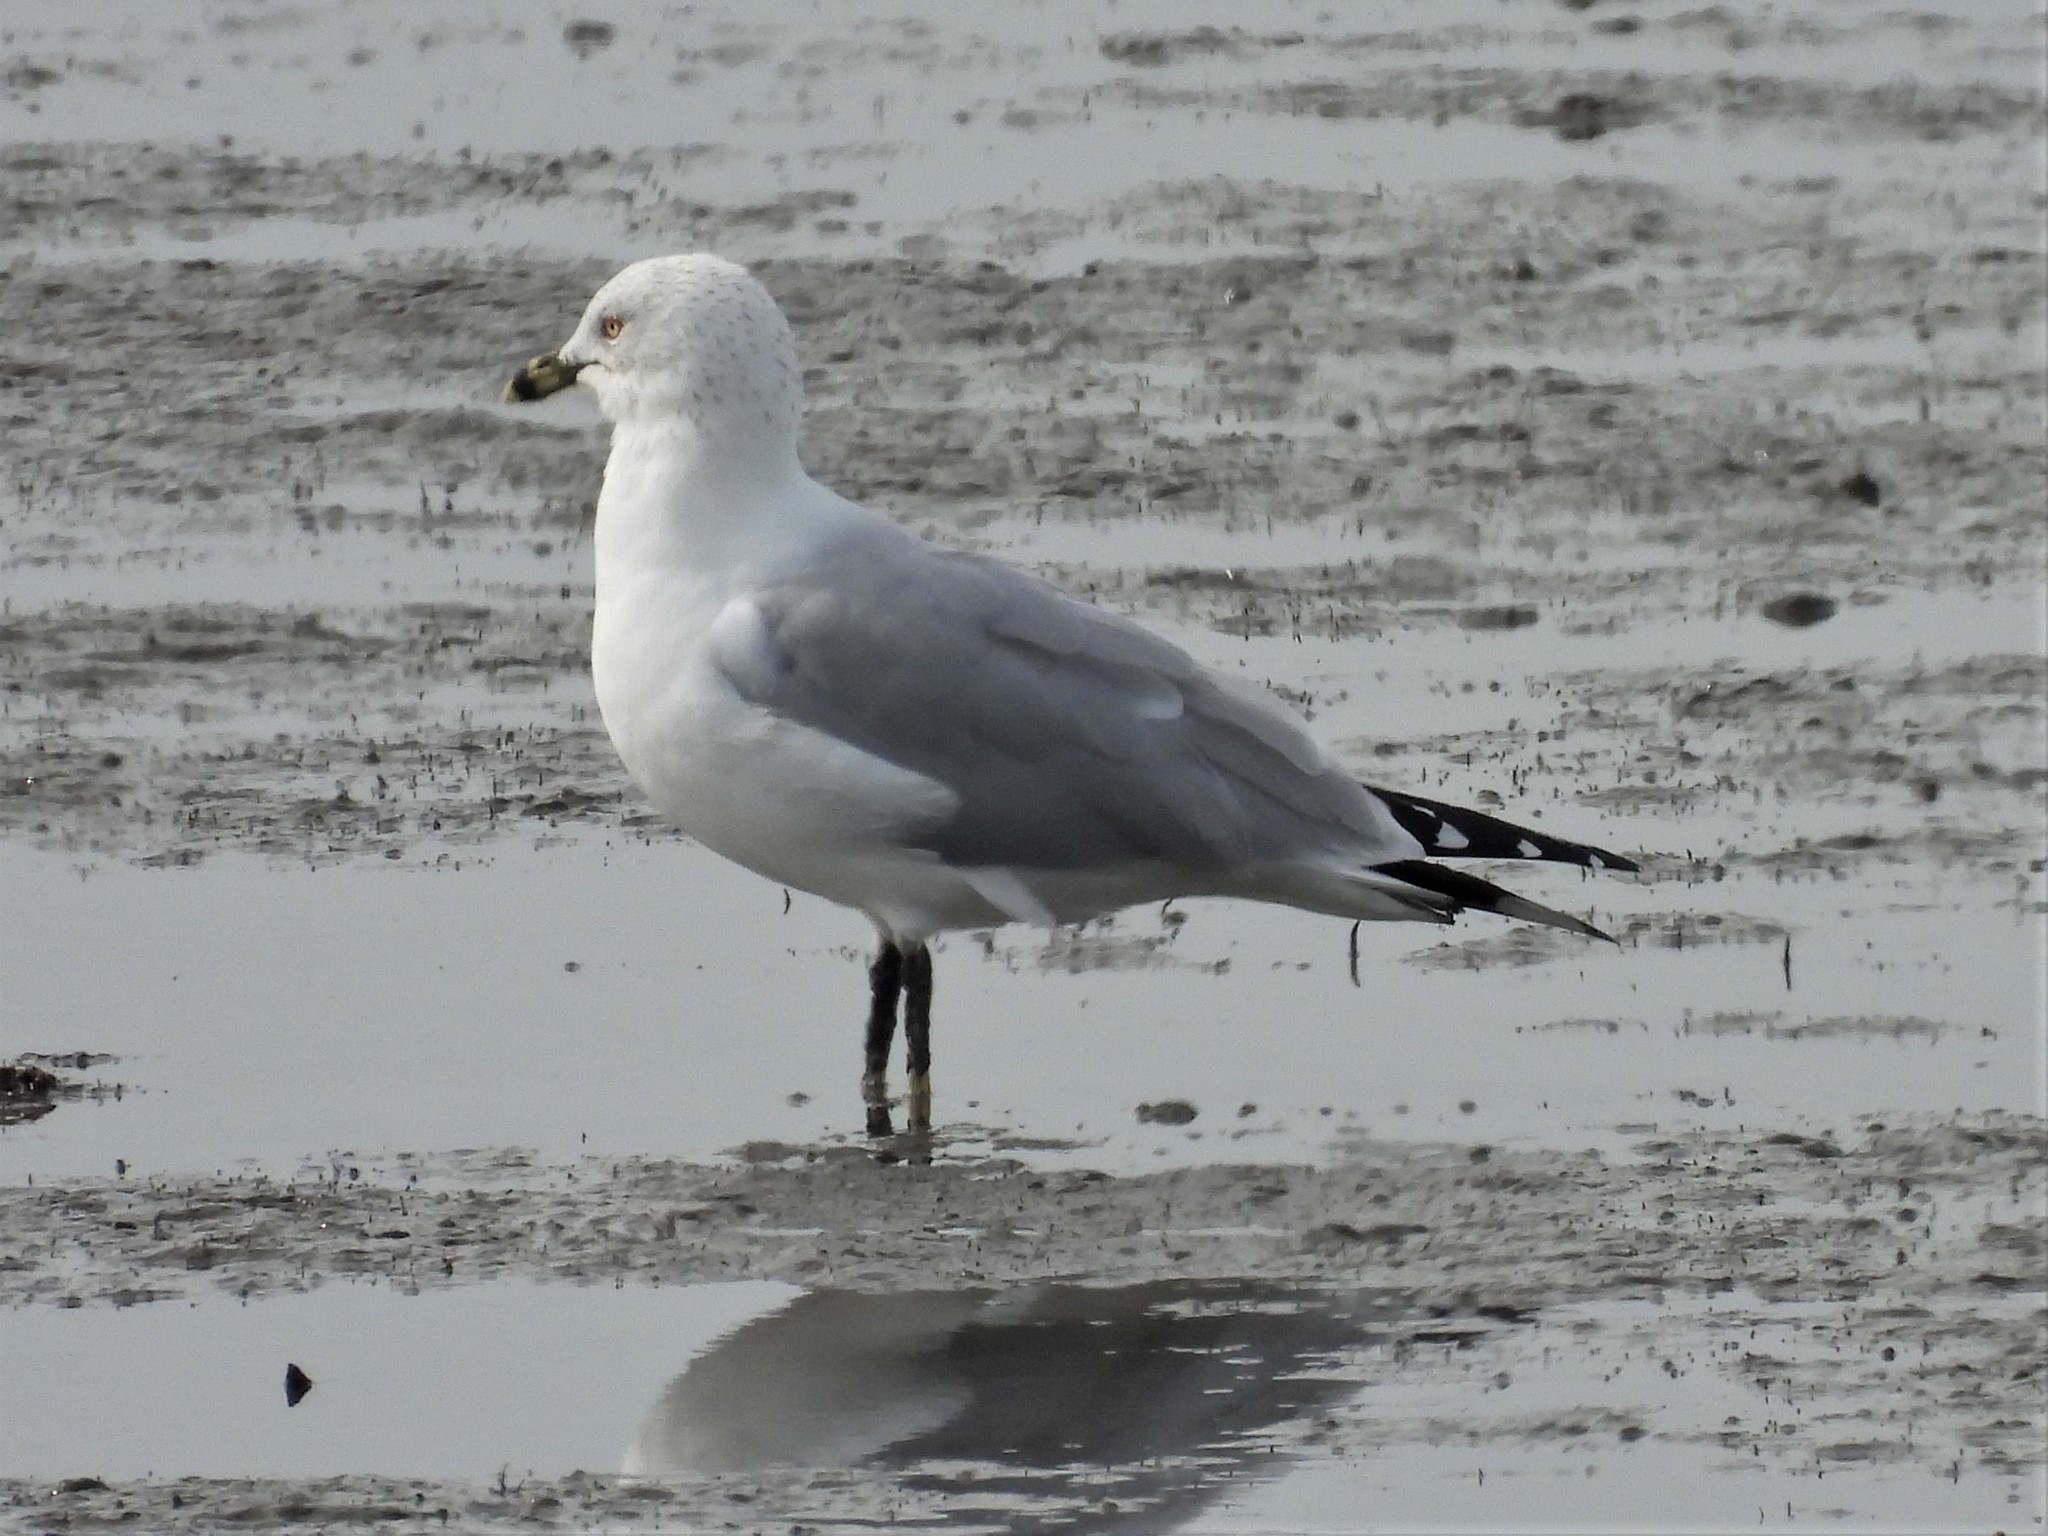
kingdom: Animalia
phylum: Chordata
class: Aves
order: Charadriiformes
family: Laridae
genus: Larus
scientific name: Larus delawarensis
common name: Ring-billed gull
